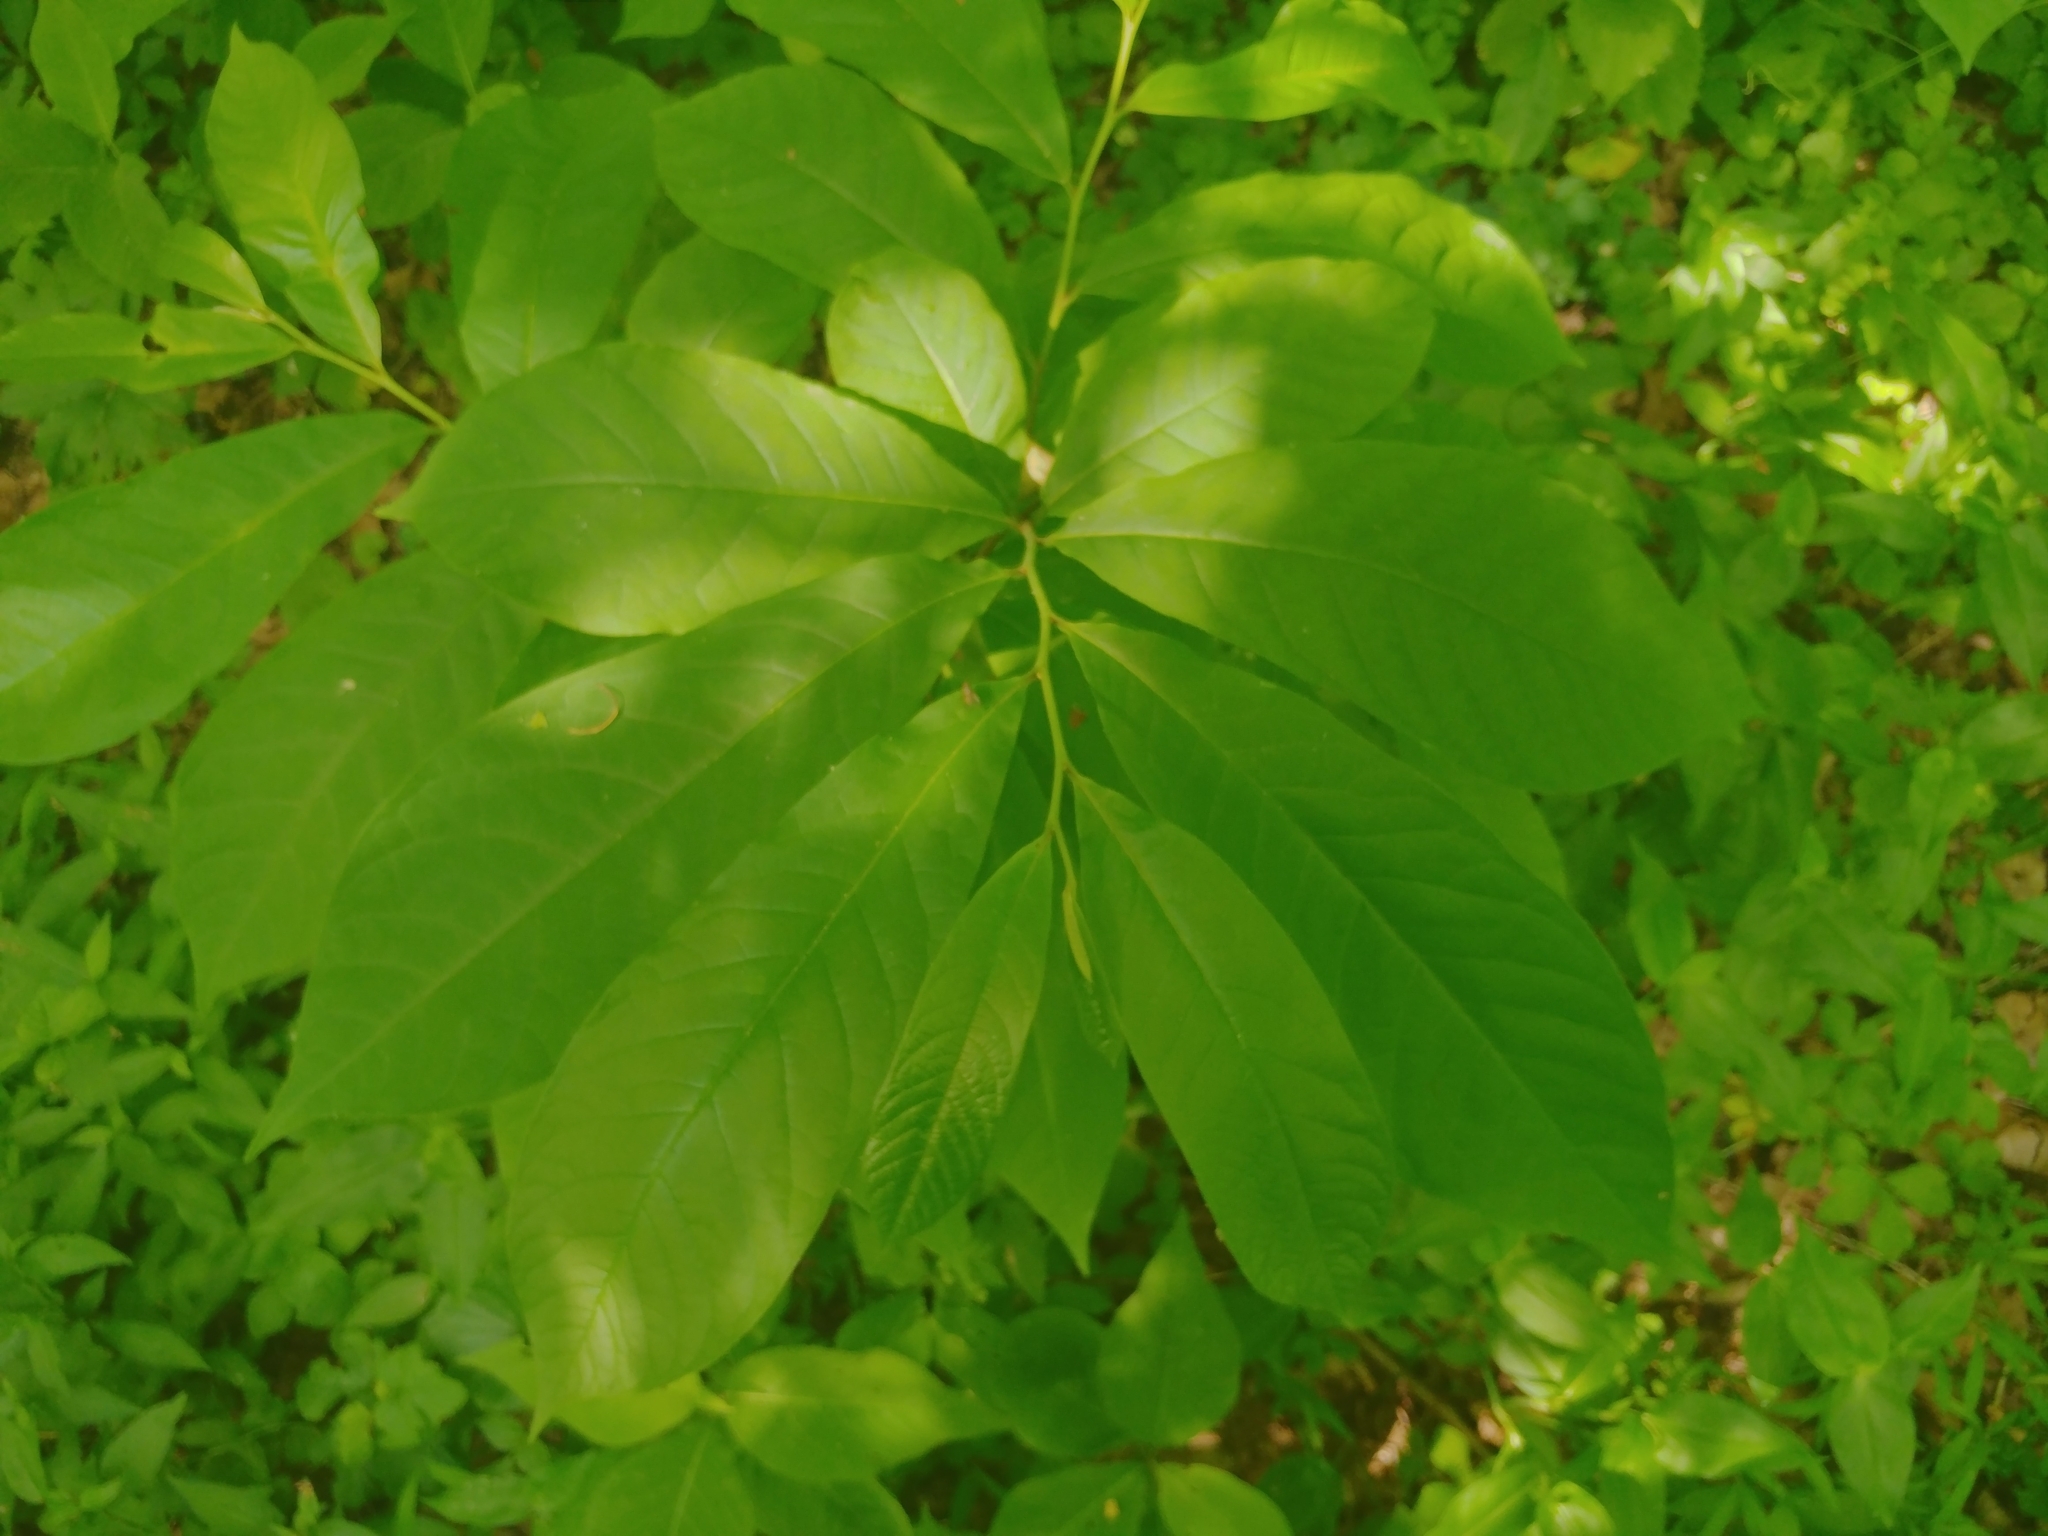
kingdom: Plantae
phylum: Tracheophyta
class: Magnoliopsida
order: Magnoliales
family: Annonaceae
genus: Asimina
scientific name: Asimina triloba
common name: Dog-banana
